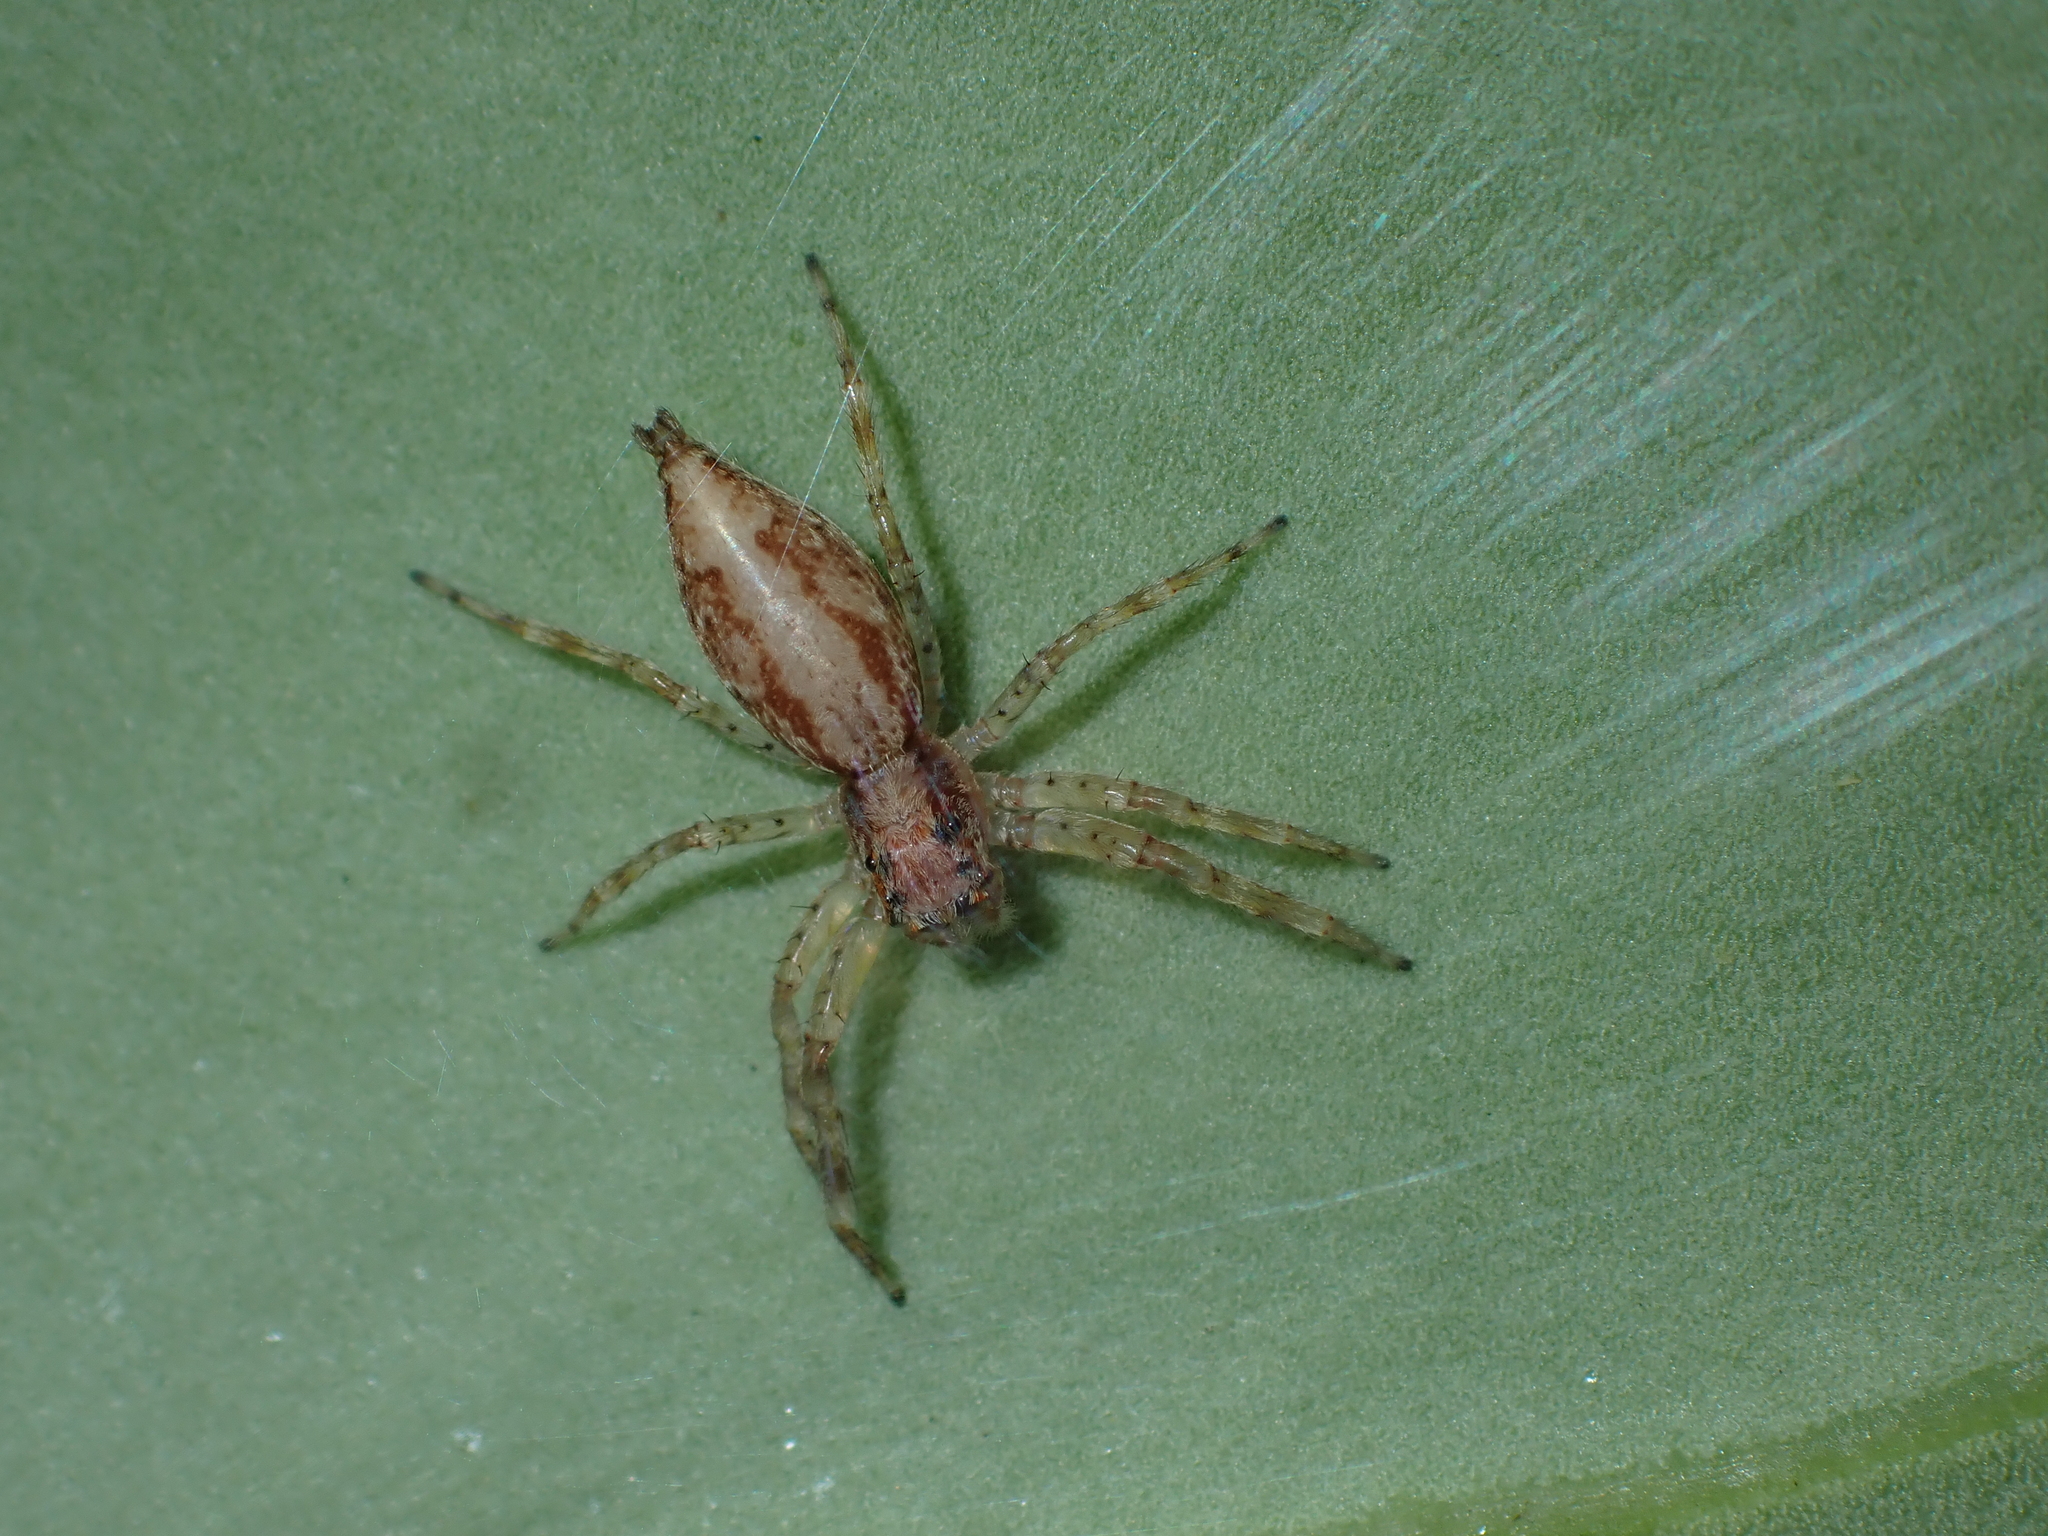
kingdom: Animalia
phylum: Arthropoda
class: Arachnida
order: Araneae
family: Salticidae
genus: Helpis
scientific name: Helpis minitabunda
